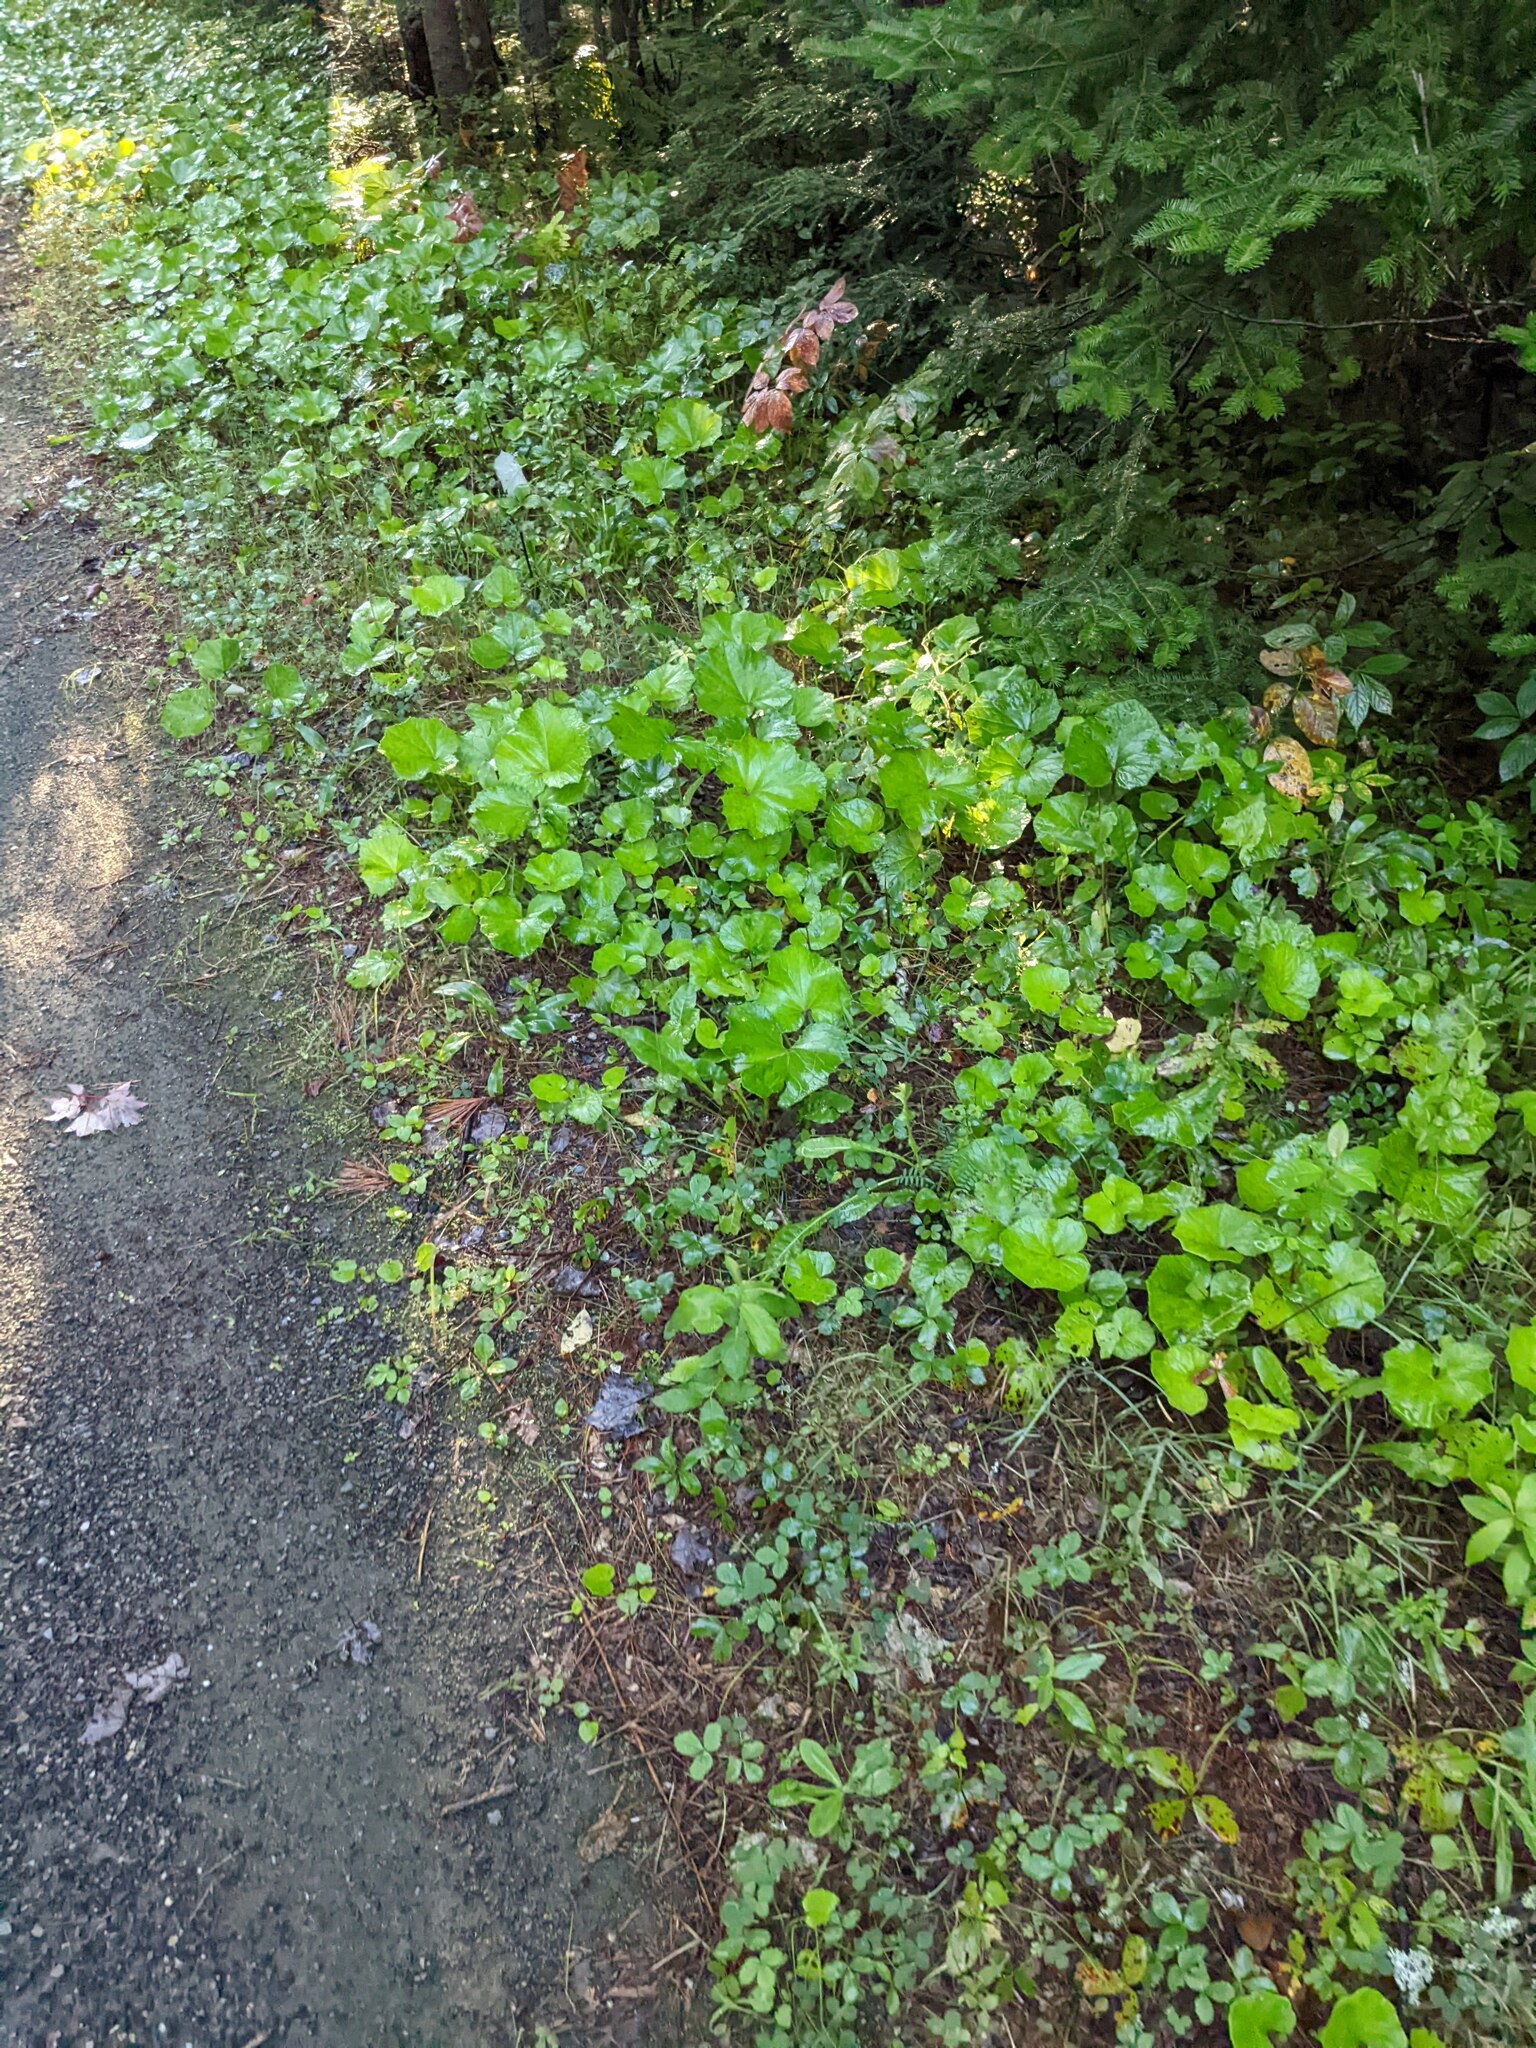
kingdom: Plantae
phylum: Tracheophyta
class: Magnoliopsida
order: Asterales
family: Asteraceae
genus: Tussilago
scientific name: Tussilago farfara
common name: Coltsfoot
